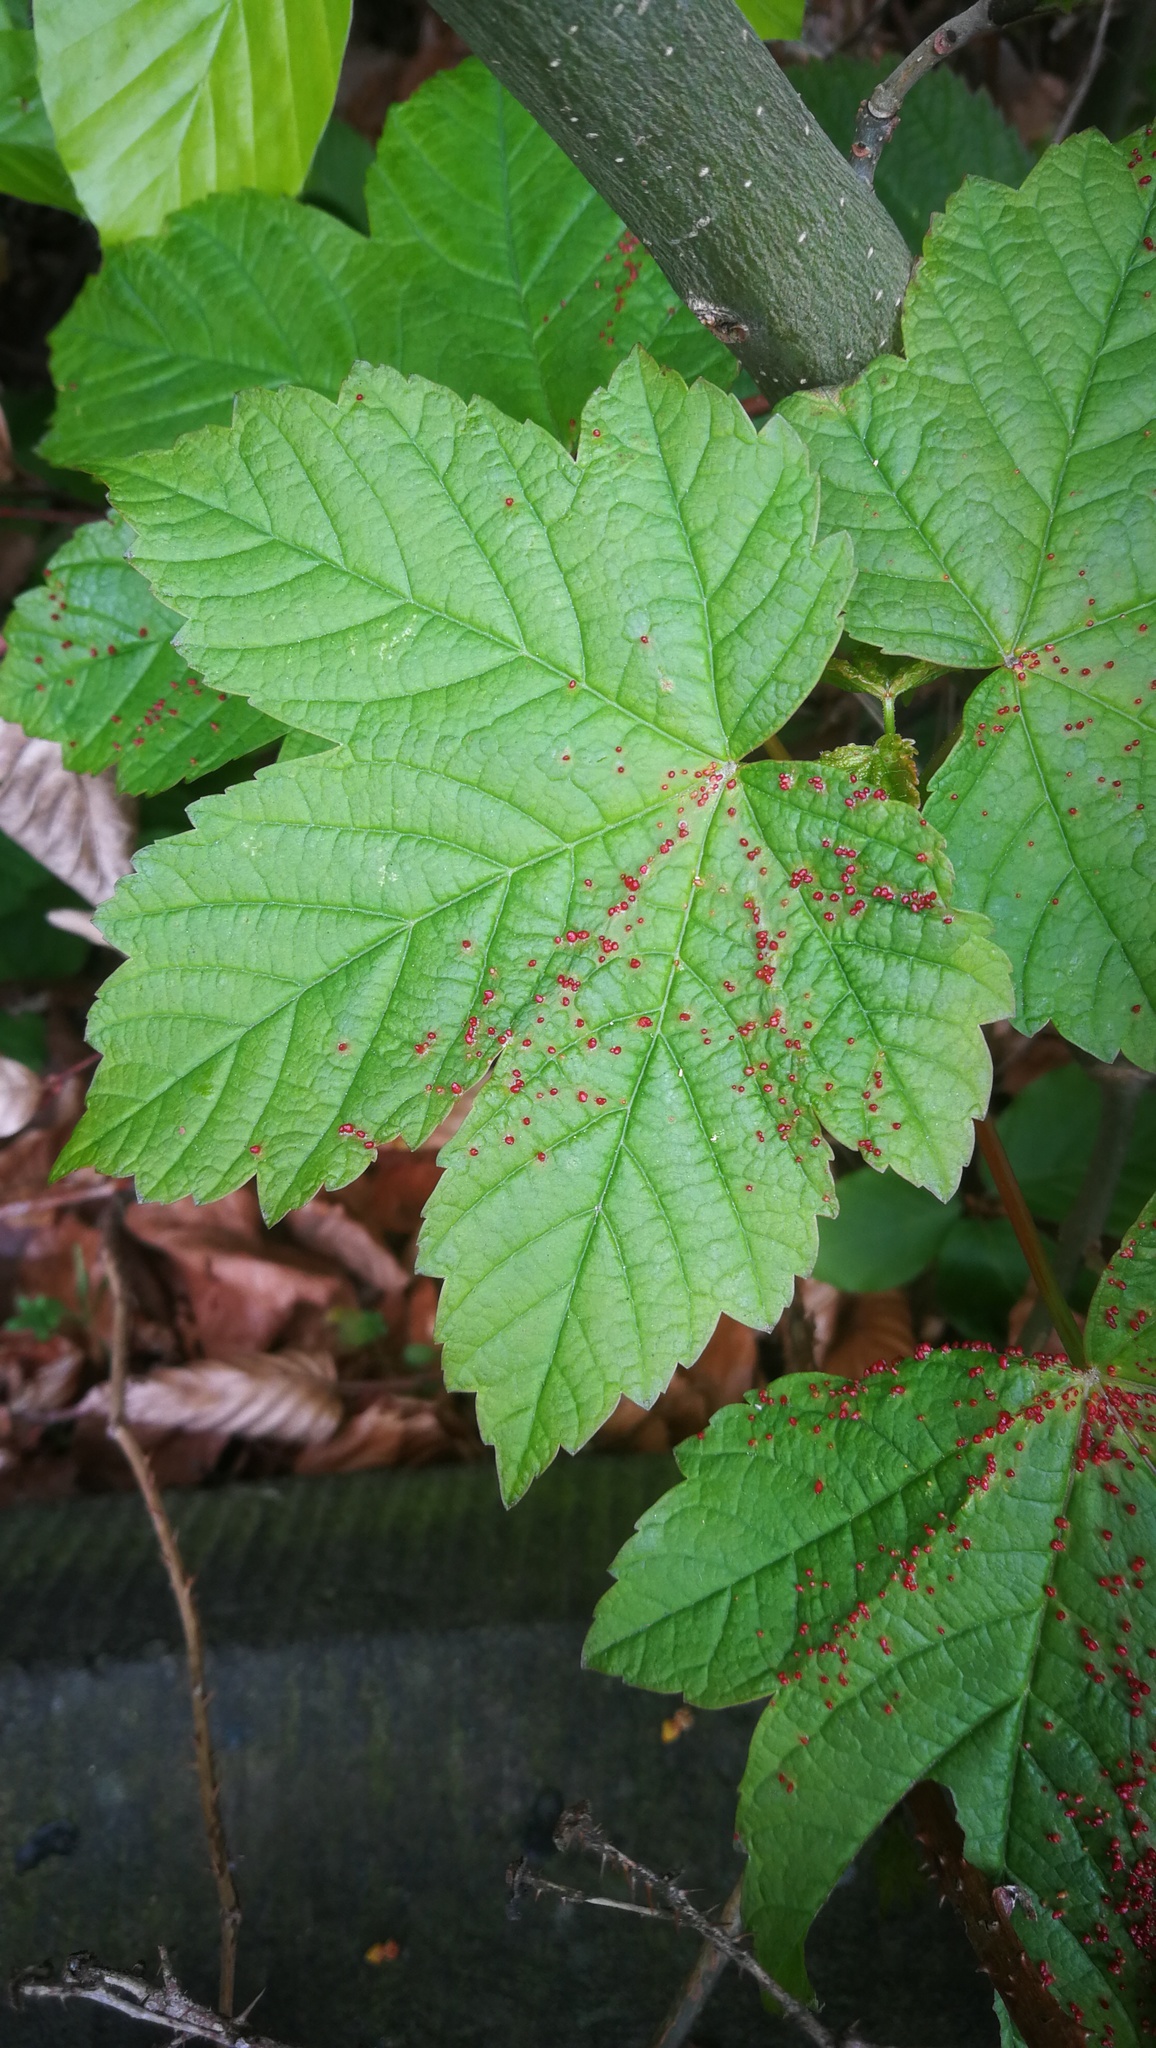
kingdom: Plantae
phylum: Tracheophyta
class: Magnoliopsida
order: Sapindales
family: Sapindaceae
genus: Acer
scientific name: Acer pseudoplatanus
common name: Sycamore
